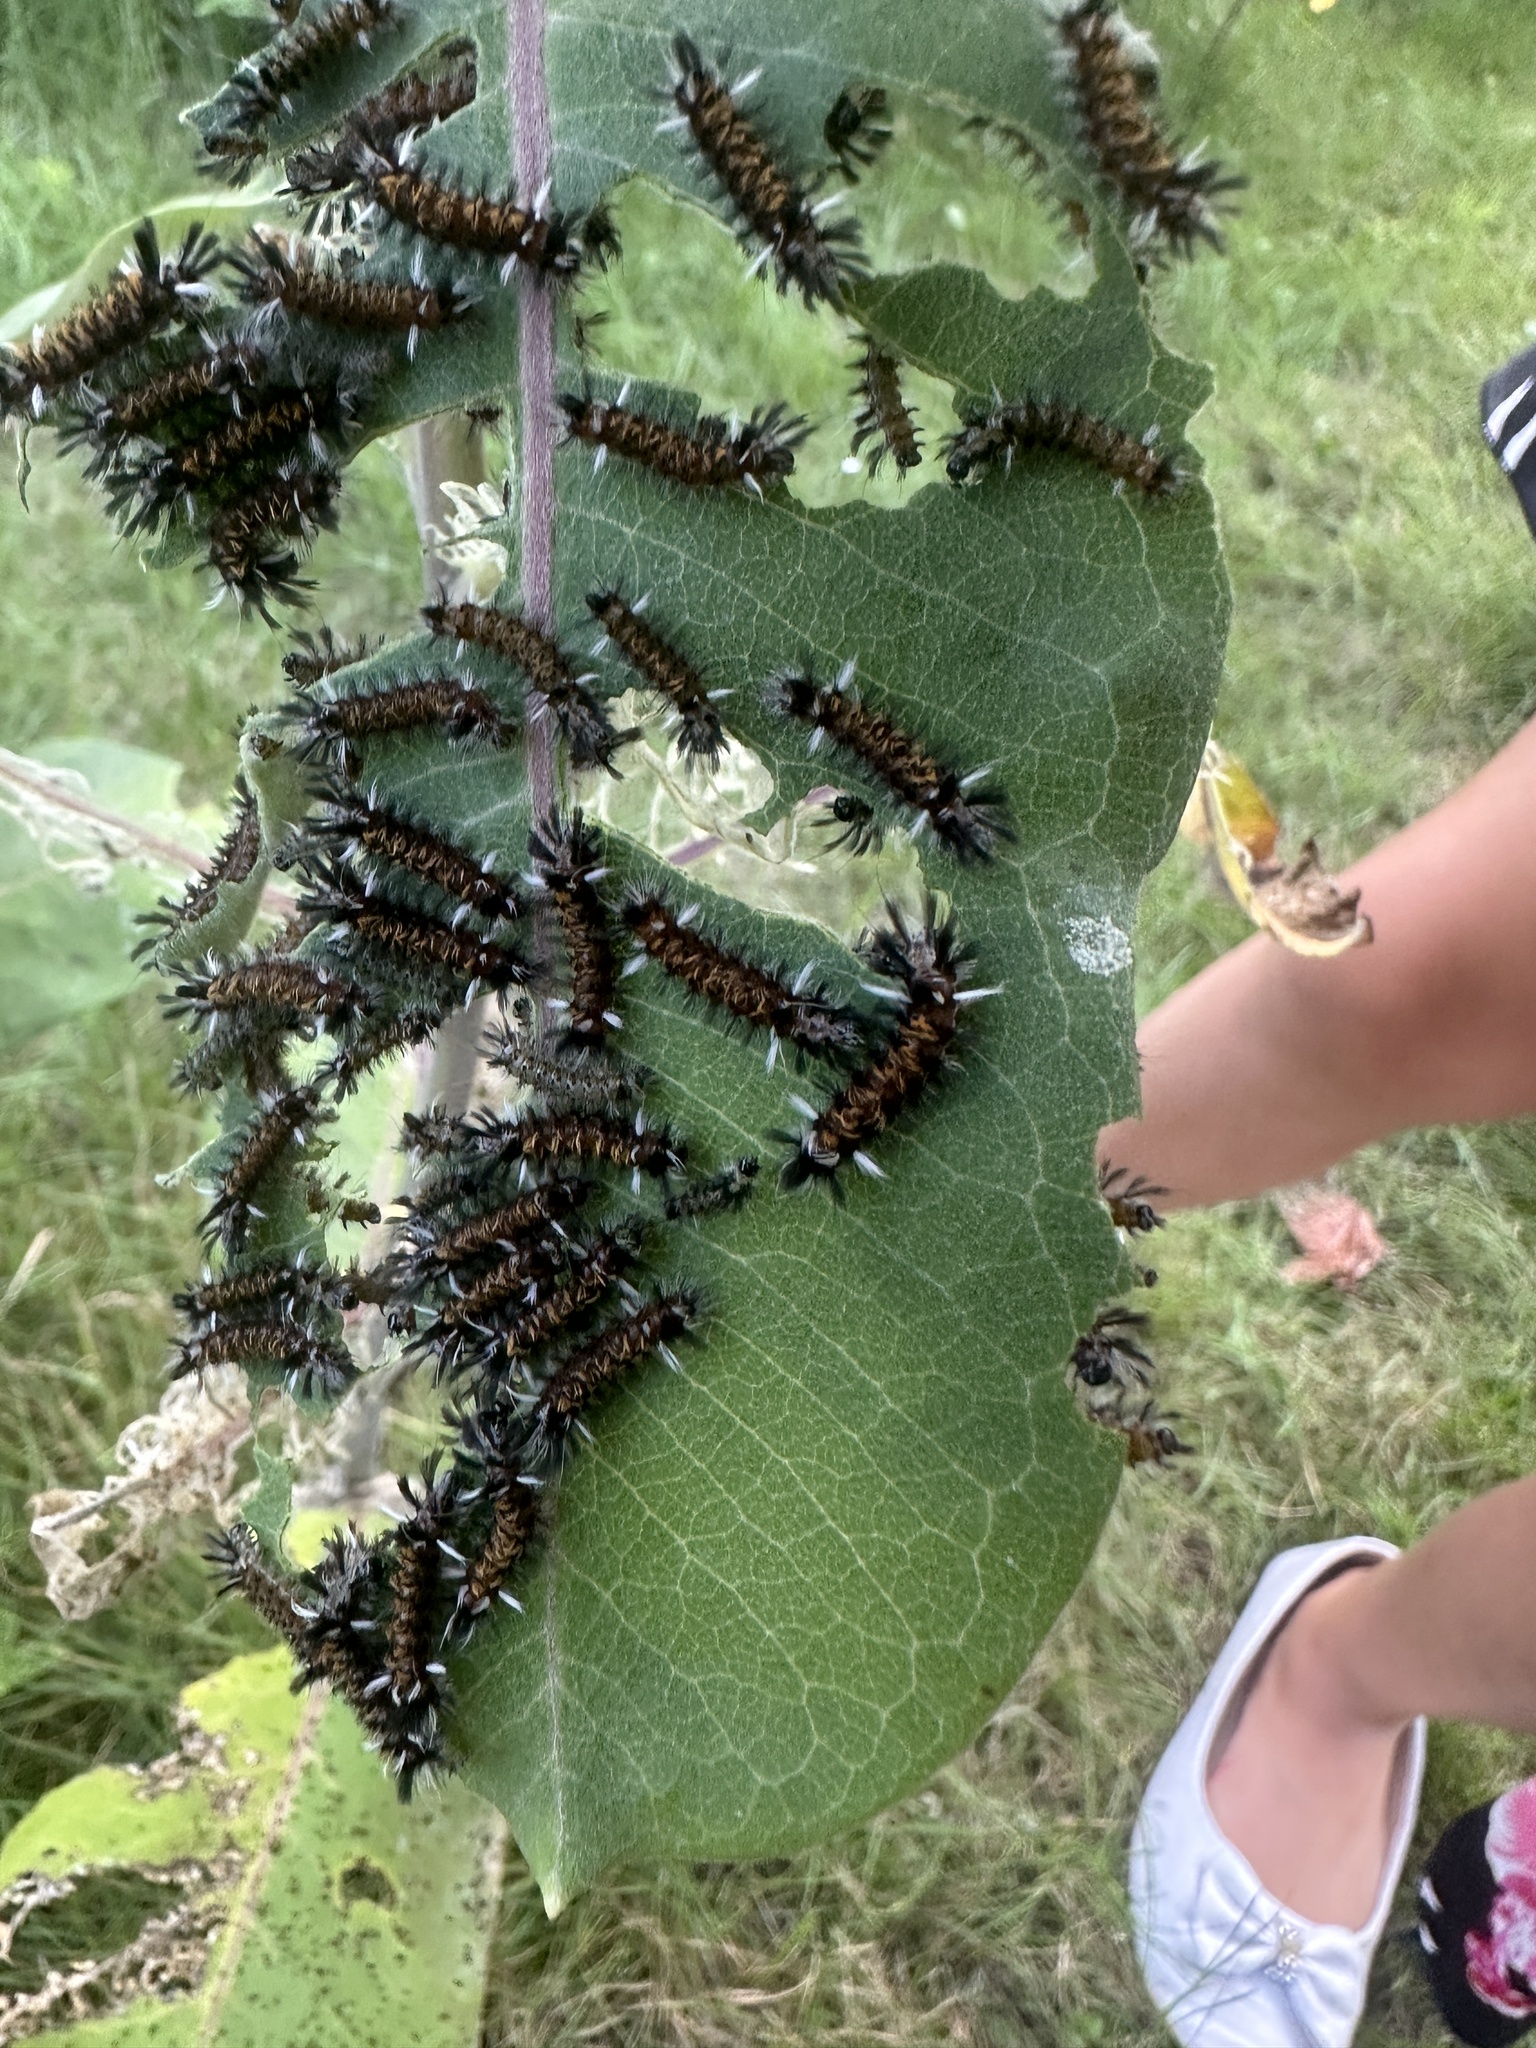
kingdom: Animalia
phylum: Arthropoda
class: Insecta
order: Lepidoptera
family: Erebidae
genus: Euchaetes
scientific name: Euchaetes egle
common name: Milkweed tussock moth
